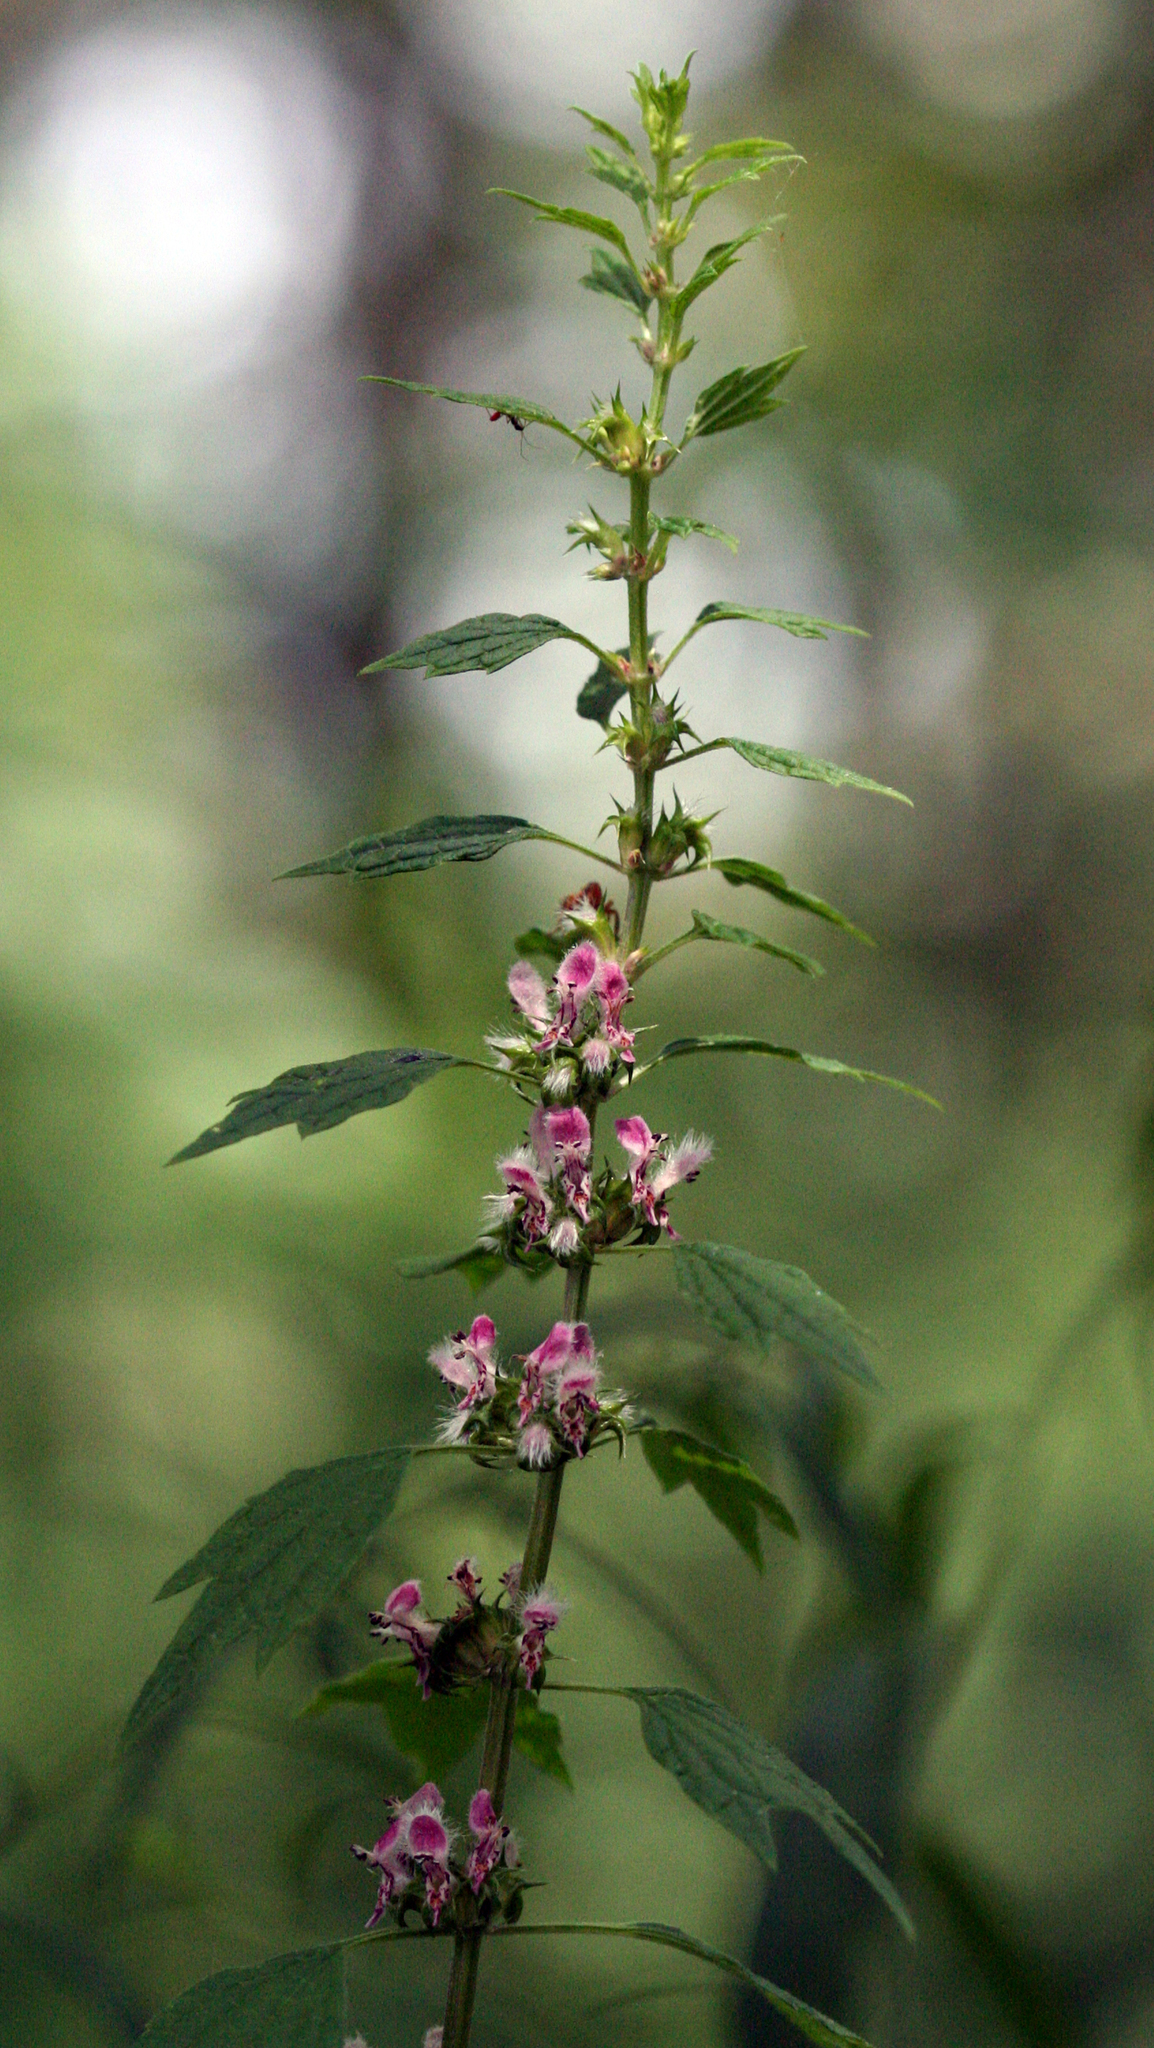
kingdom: Plantae
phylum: Tracheophyta
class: Magnoliopsida
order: Lamiales
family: Lamiaceae
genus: Leonurus
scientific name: Leonurus cardiaca
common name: Motherwort
